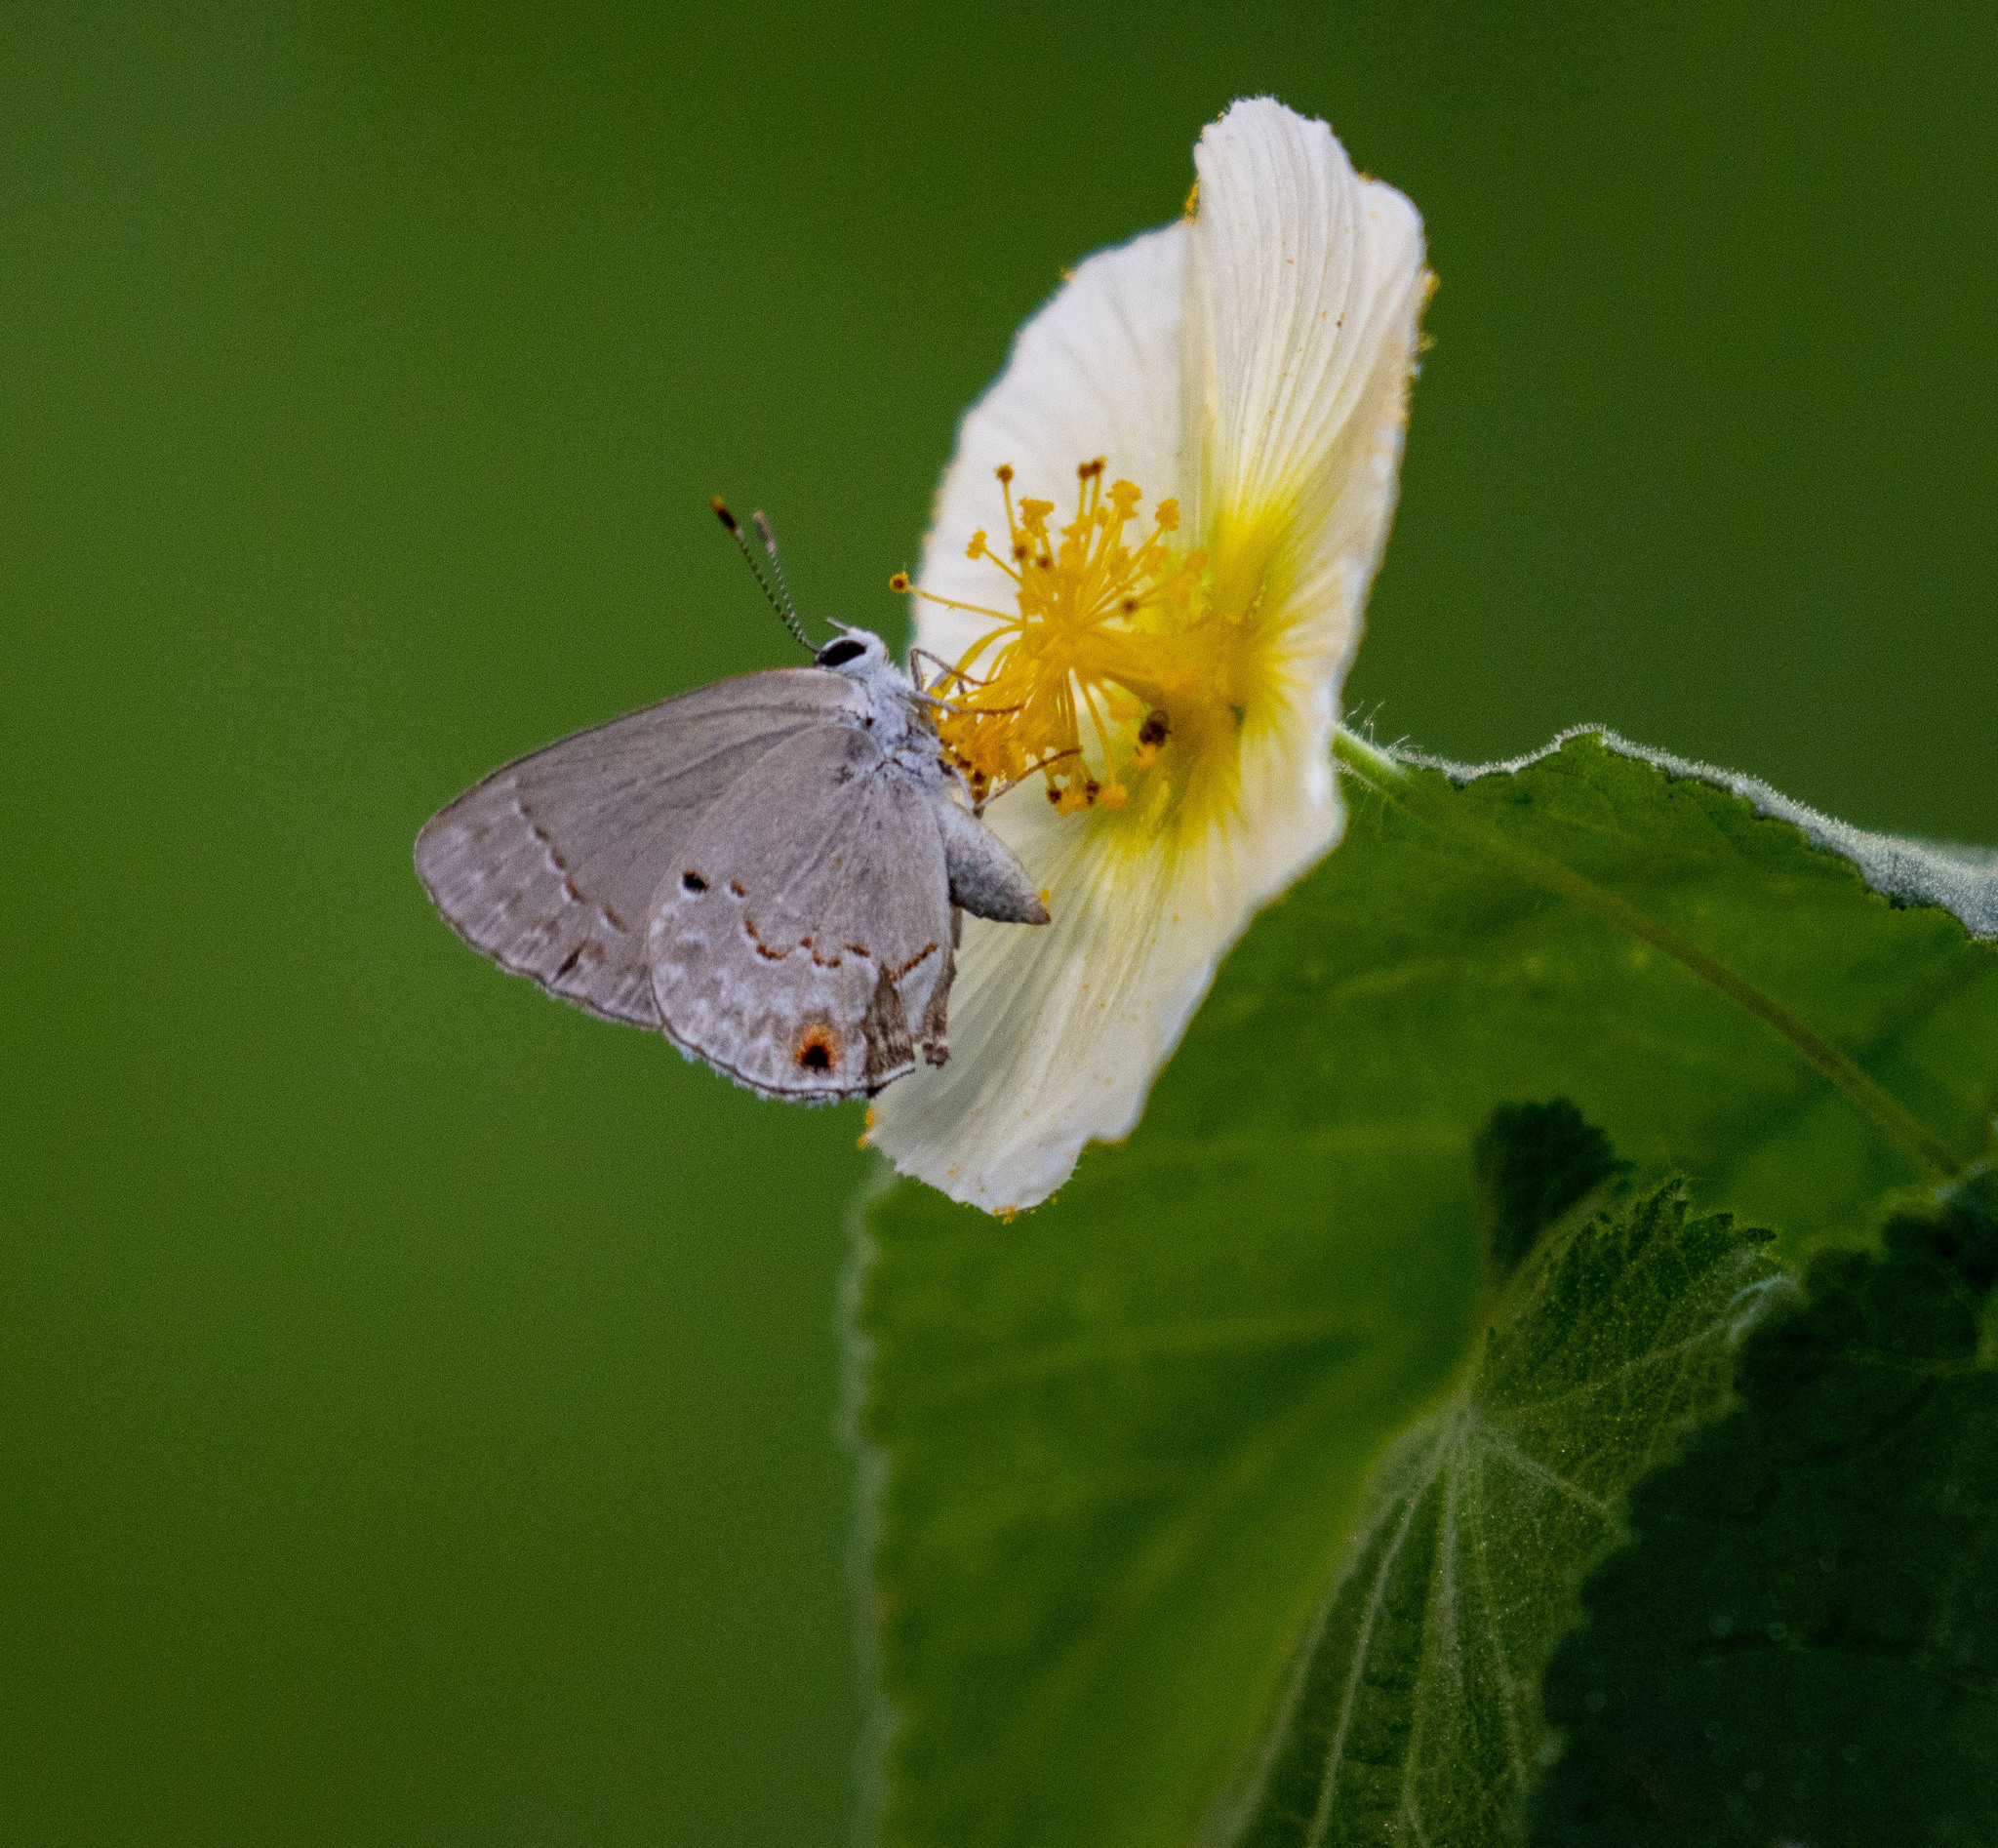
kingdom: Animalia
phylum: Arthropoda
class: Insecta
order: Lepidoptera
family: Lycaenidae
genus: Thecla
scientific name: Thecla rufofusca
